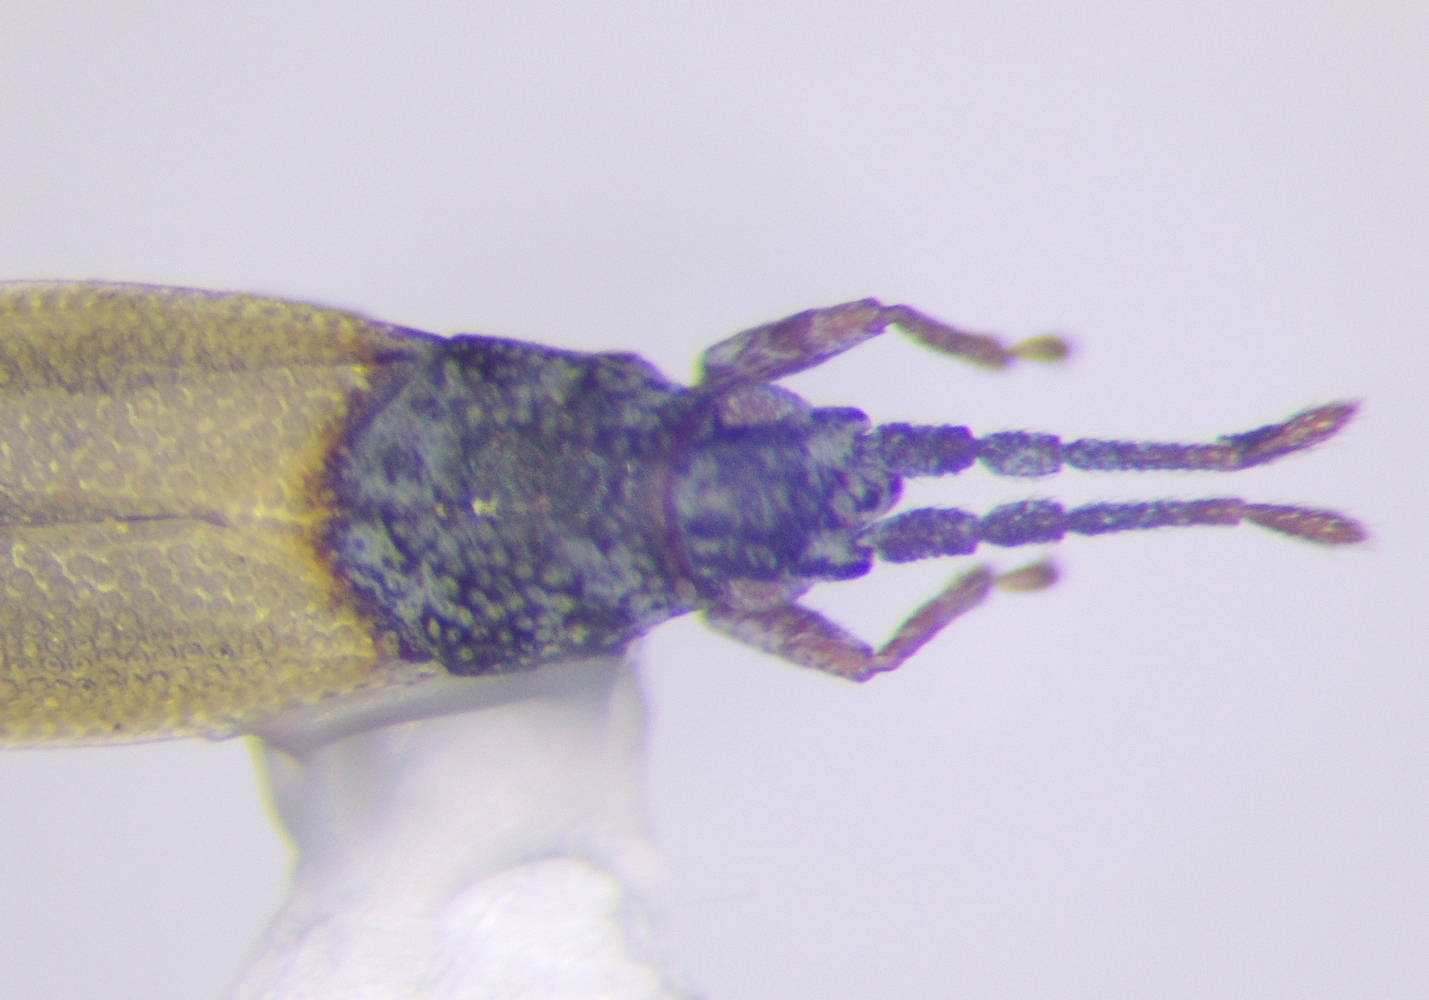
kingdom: Animalia
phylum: Arthropoda
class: Insecta
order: Hemiptera
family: Tingidae
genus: Agramma
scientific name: Agramma blandulum
